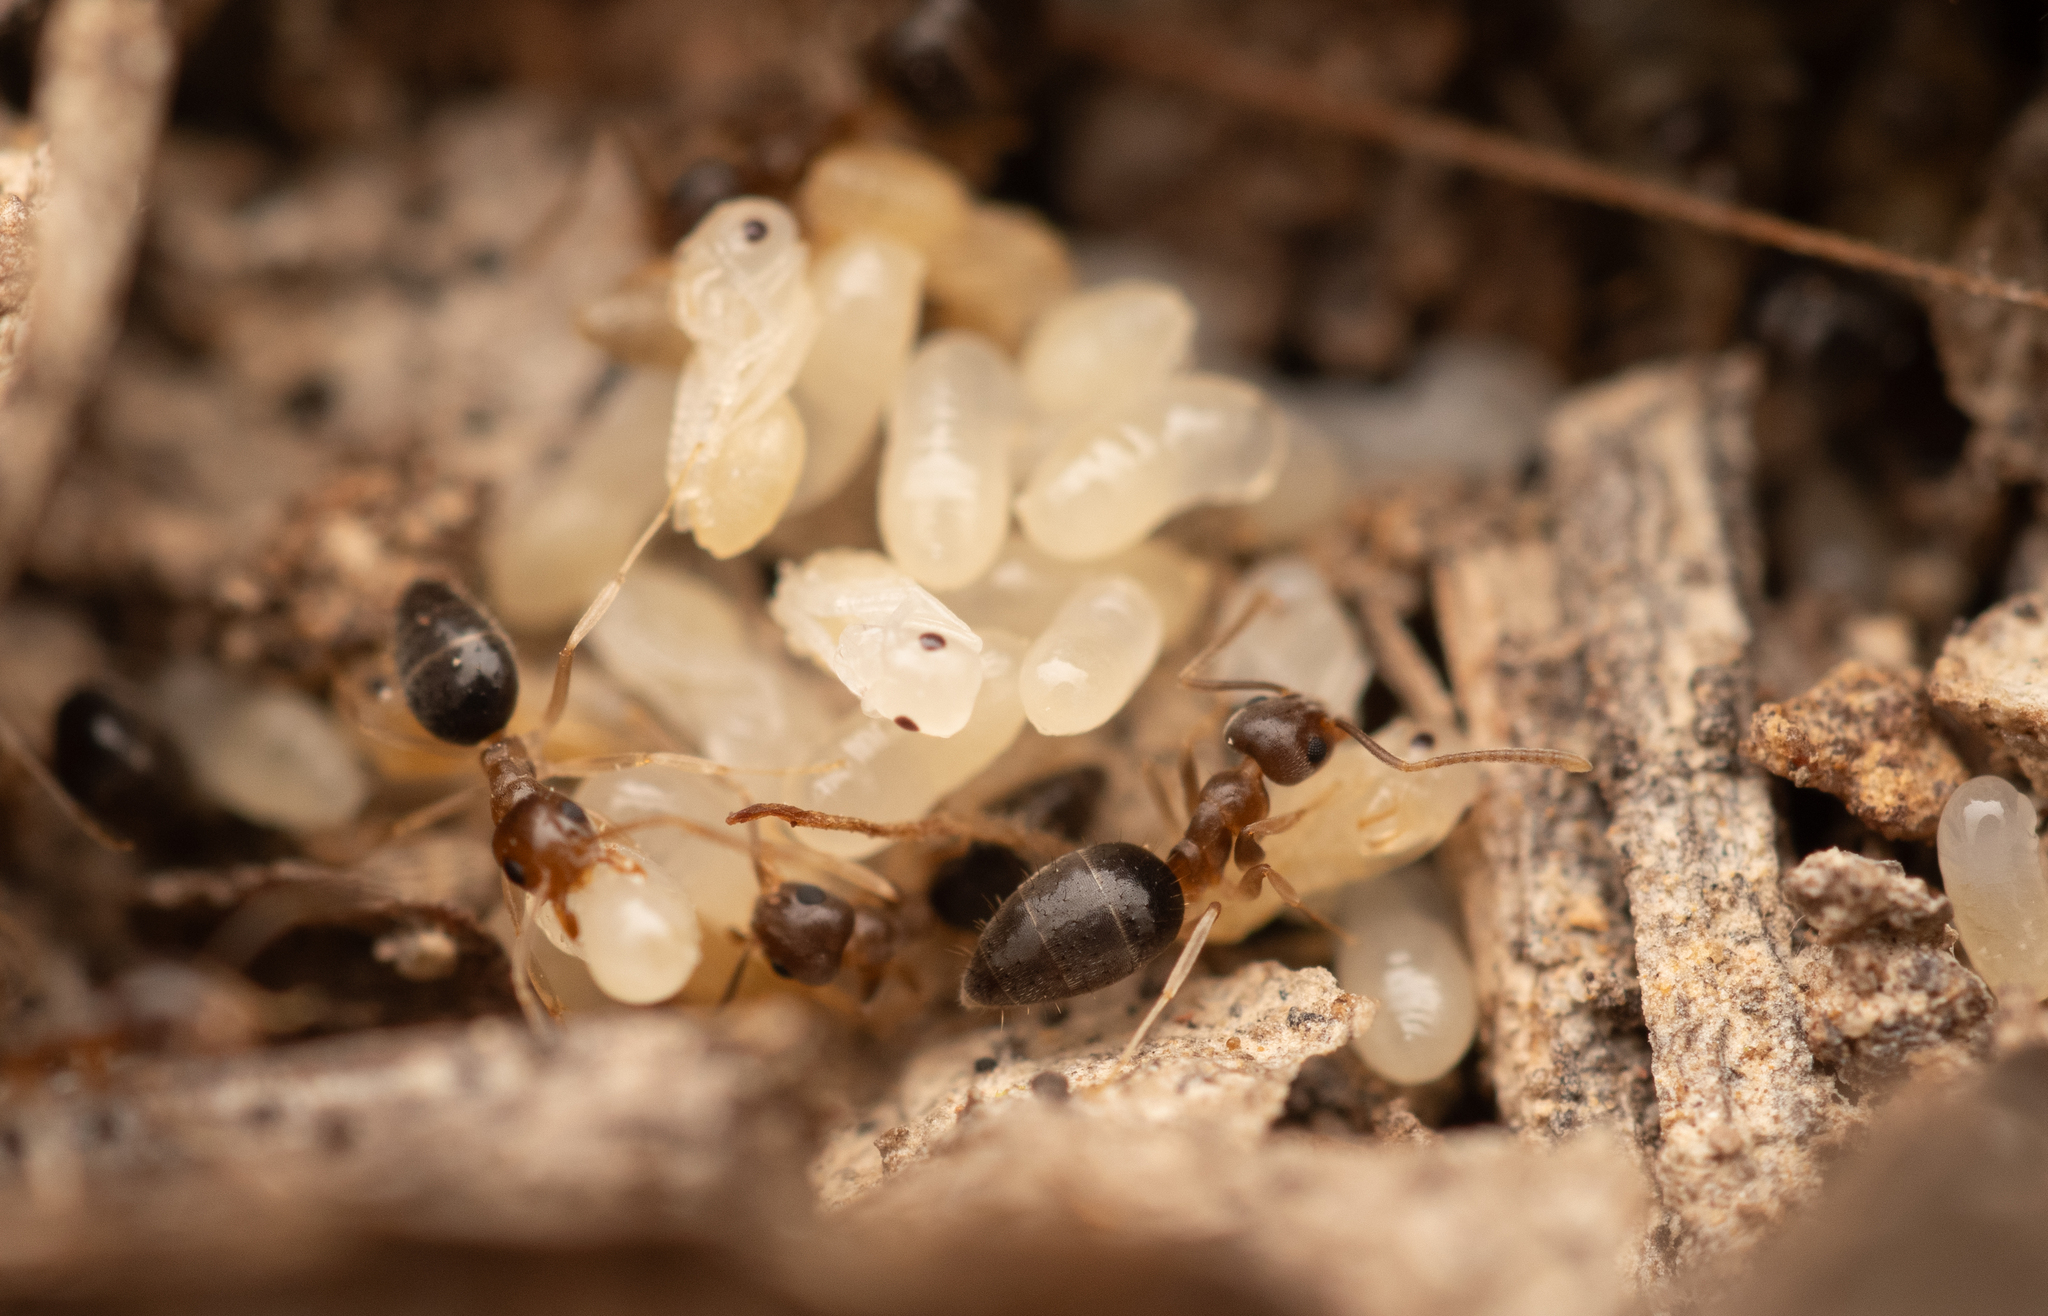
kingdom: Animalia
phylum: Arthropoda
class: Insecta
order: Hymenoptera
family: Formicidae
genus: Technomyrmex
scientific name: Technomyrmex antennus
